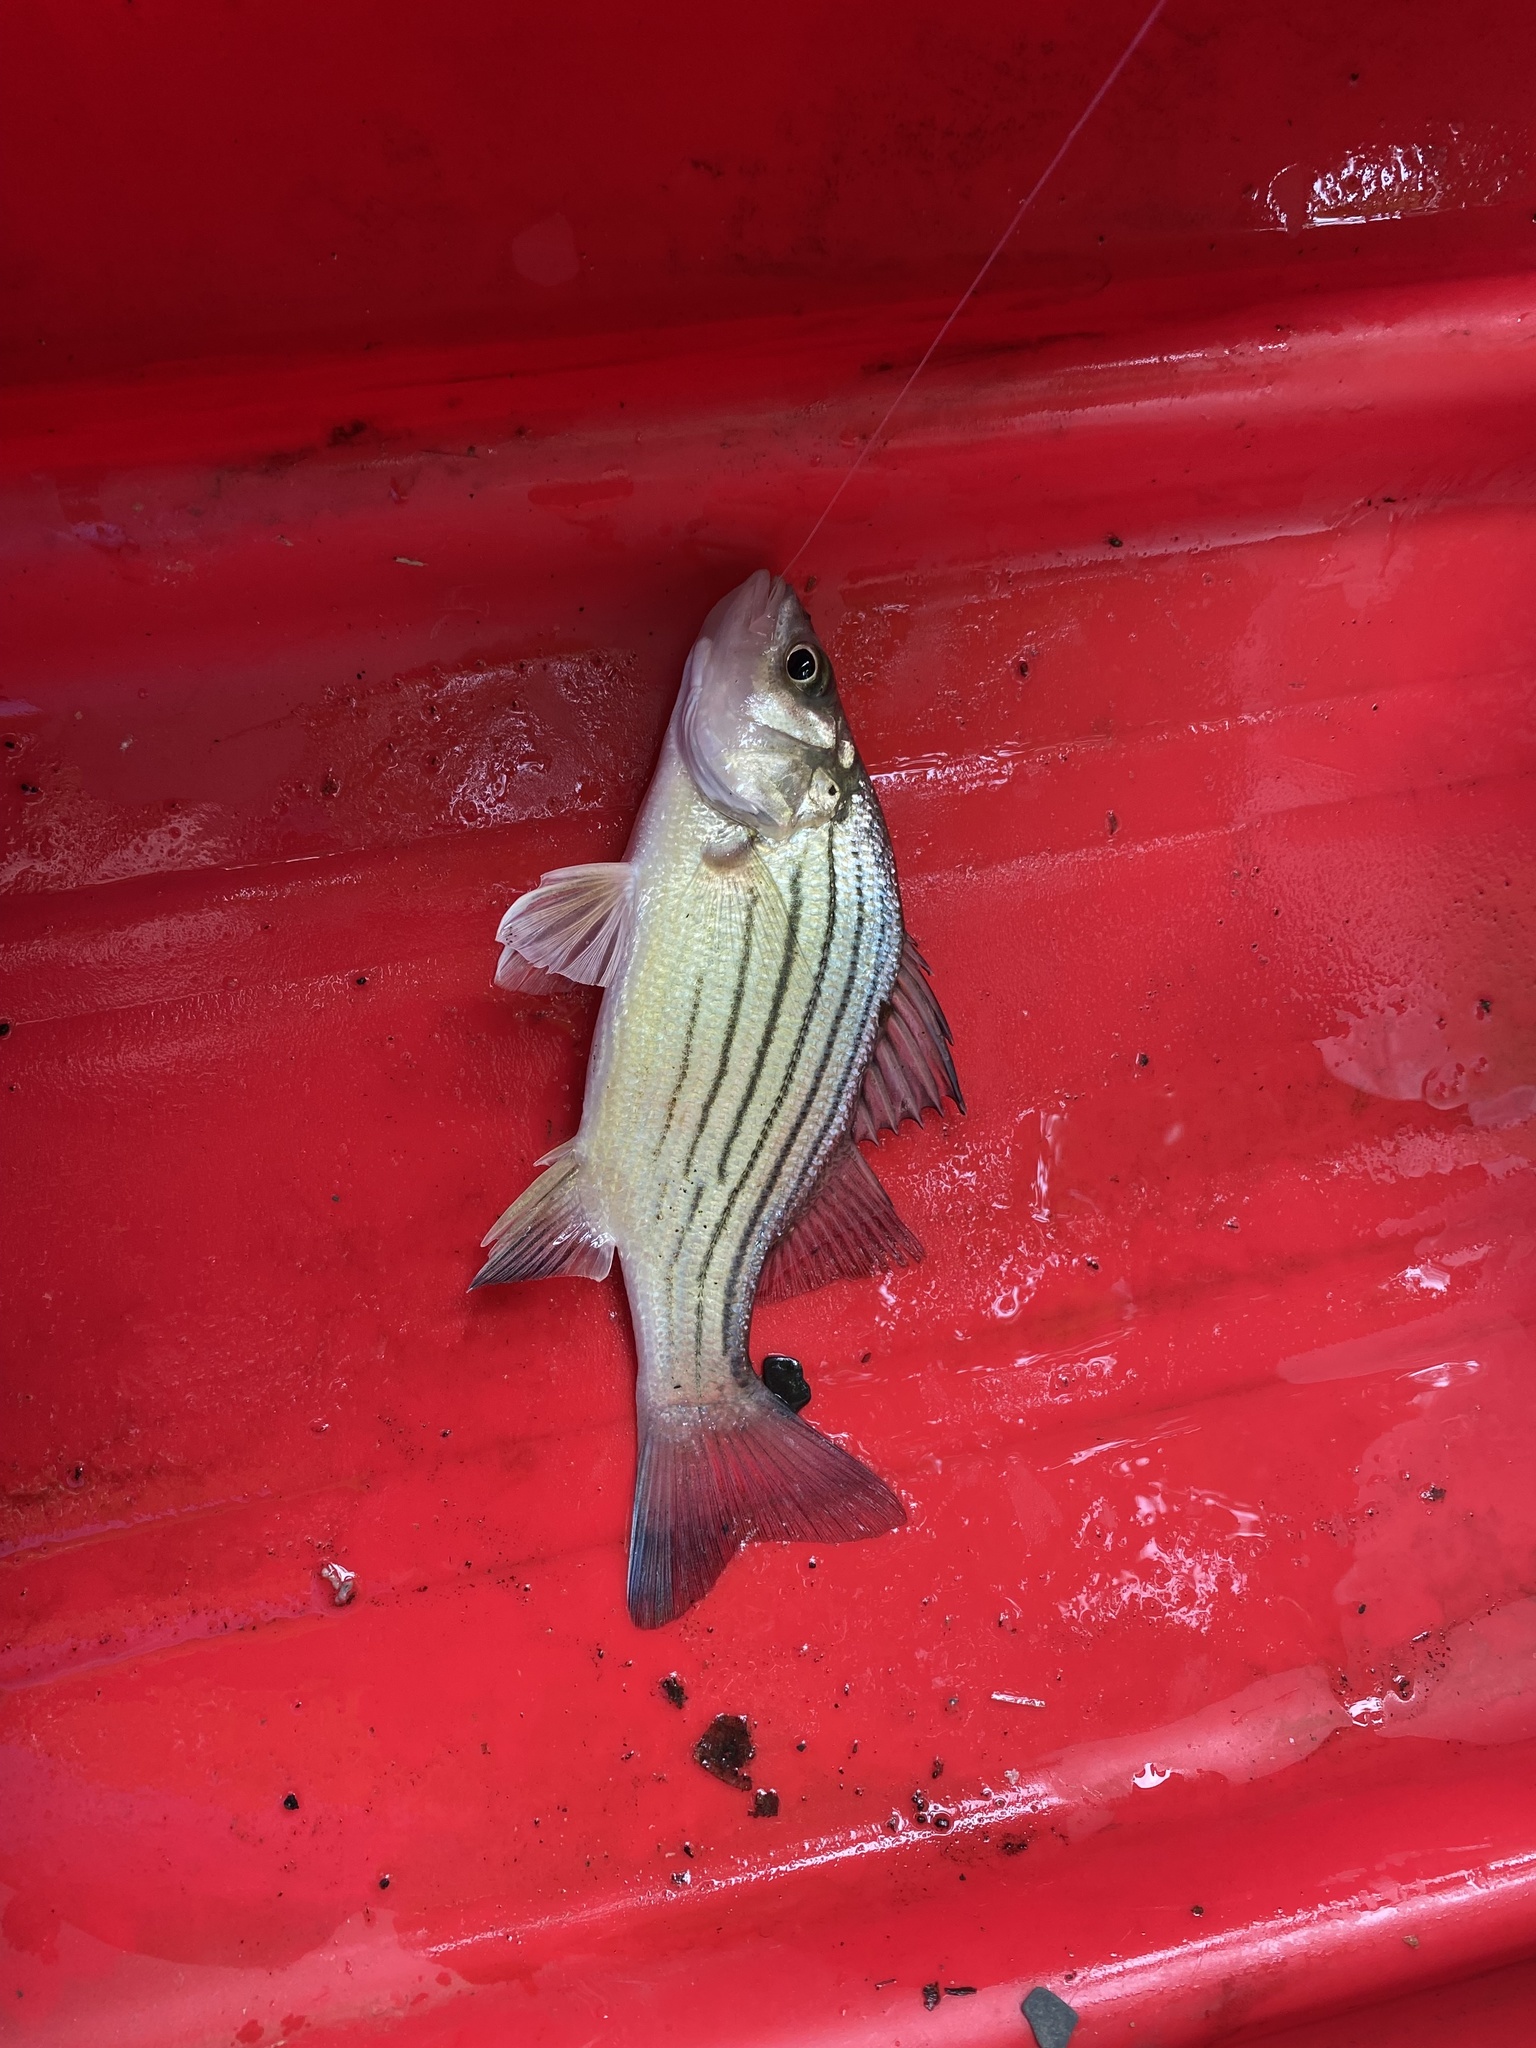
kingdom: Animalia
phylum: Chordata
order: Perciformes
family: Moronidae
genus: Morone
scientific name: Morone mississippiensis
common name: Yellow bass
